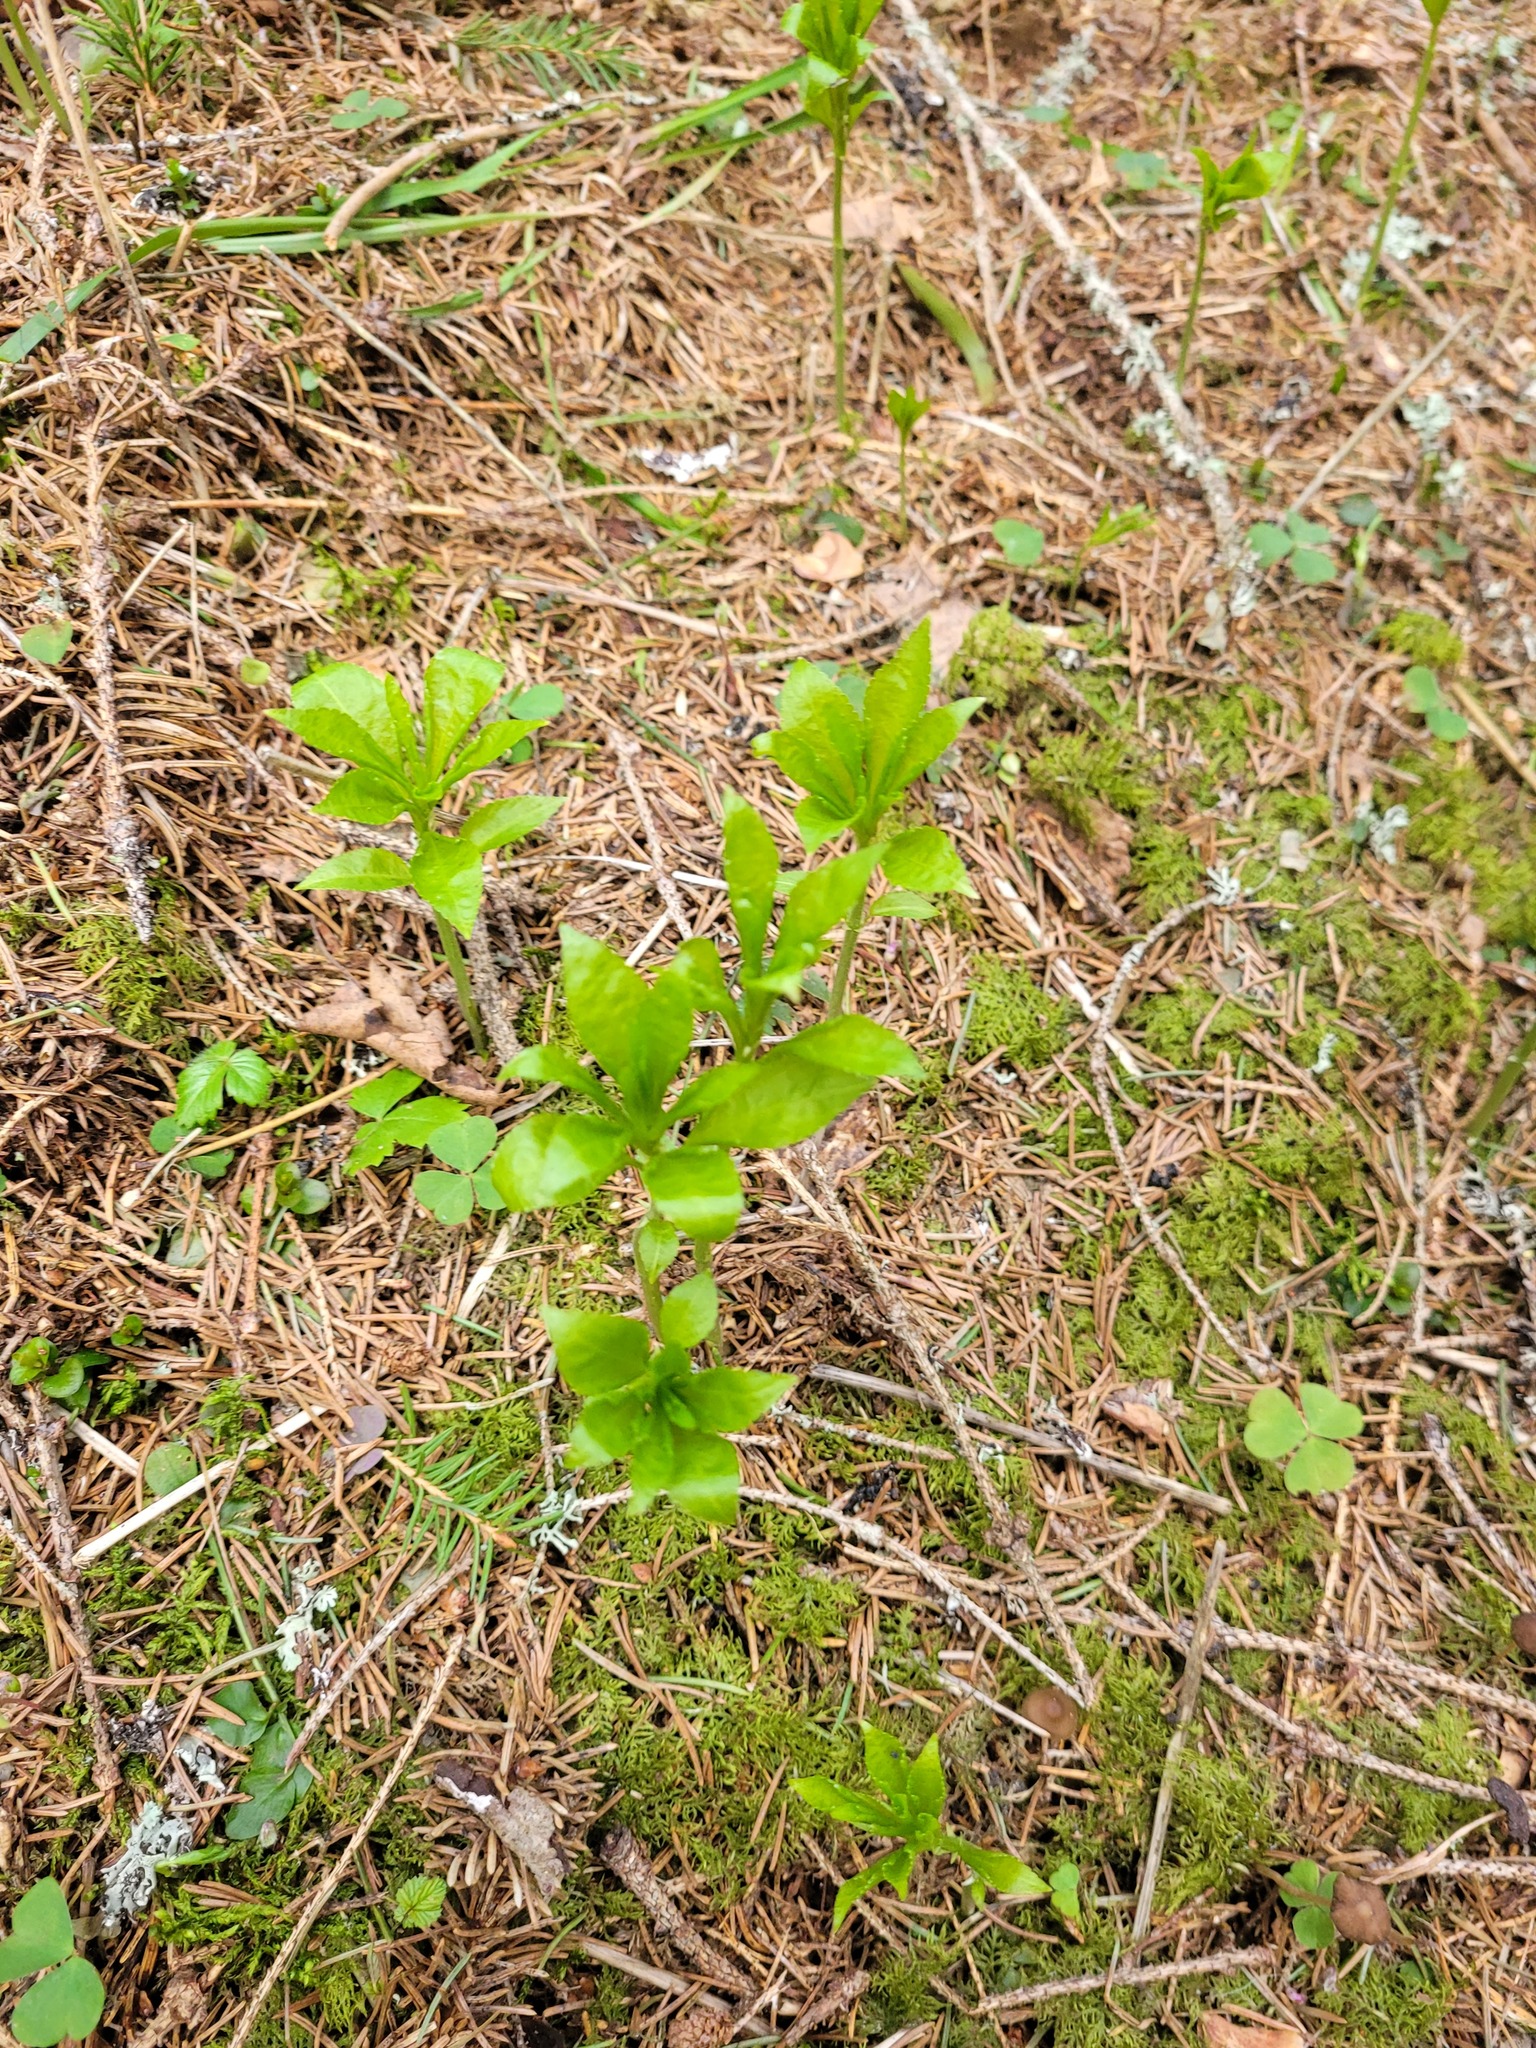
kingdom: Plantae
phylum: Tracheophyta
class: Magnoliopsida
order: Malpighiales
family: Euphorbiaceae
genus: Mercurialis
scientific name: Mercurialis perennis
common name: Dog mercury
